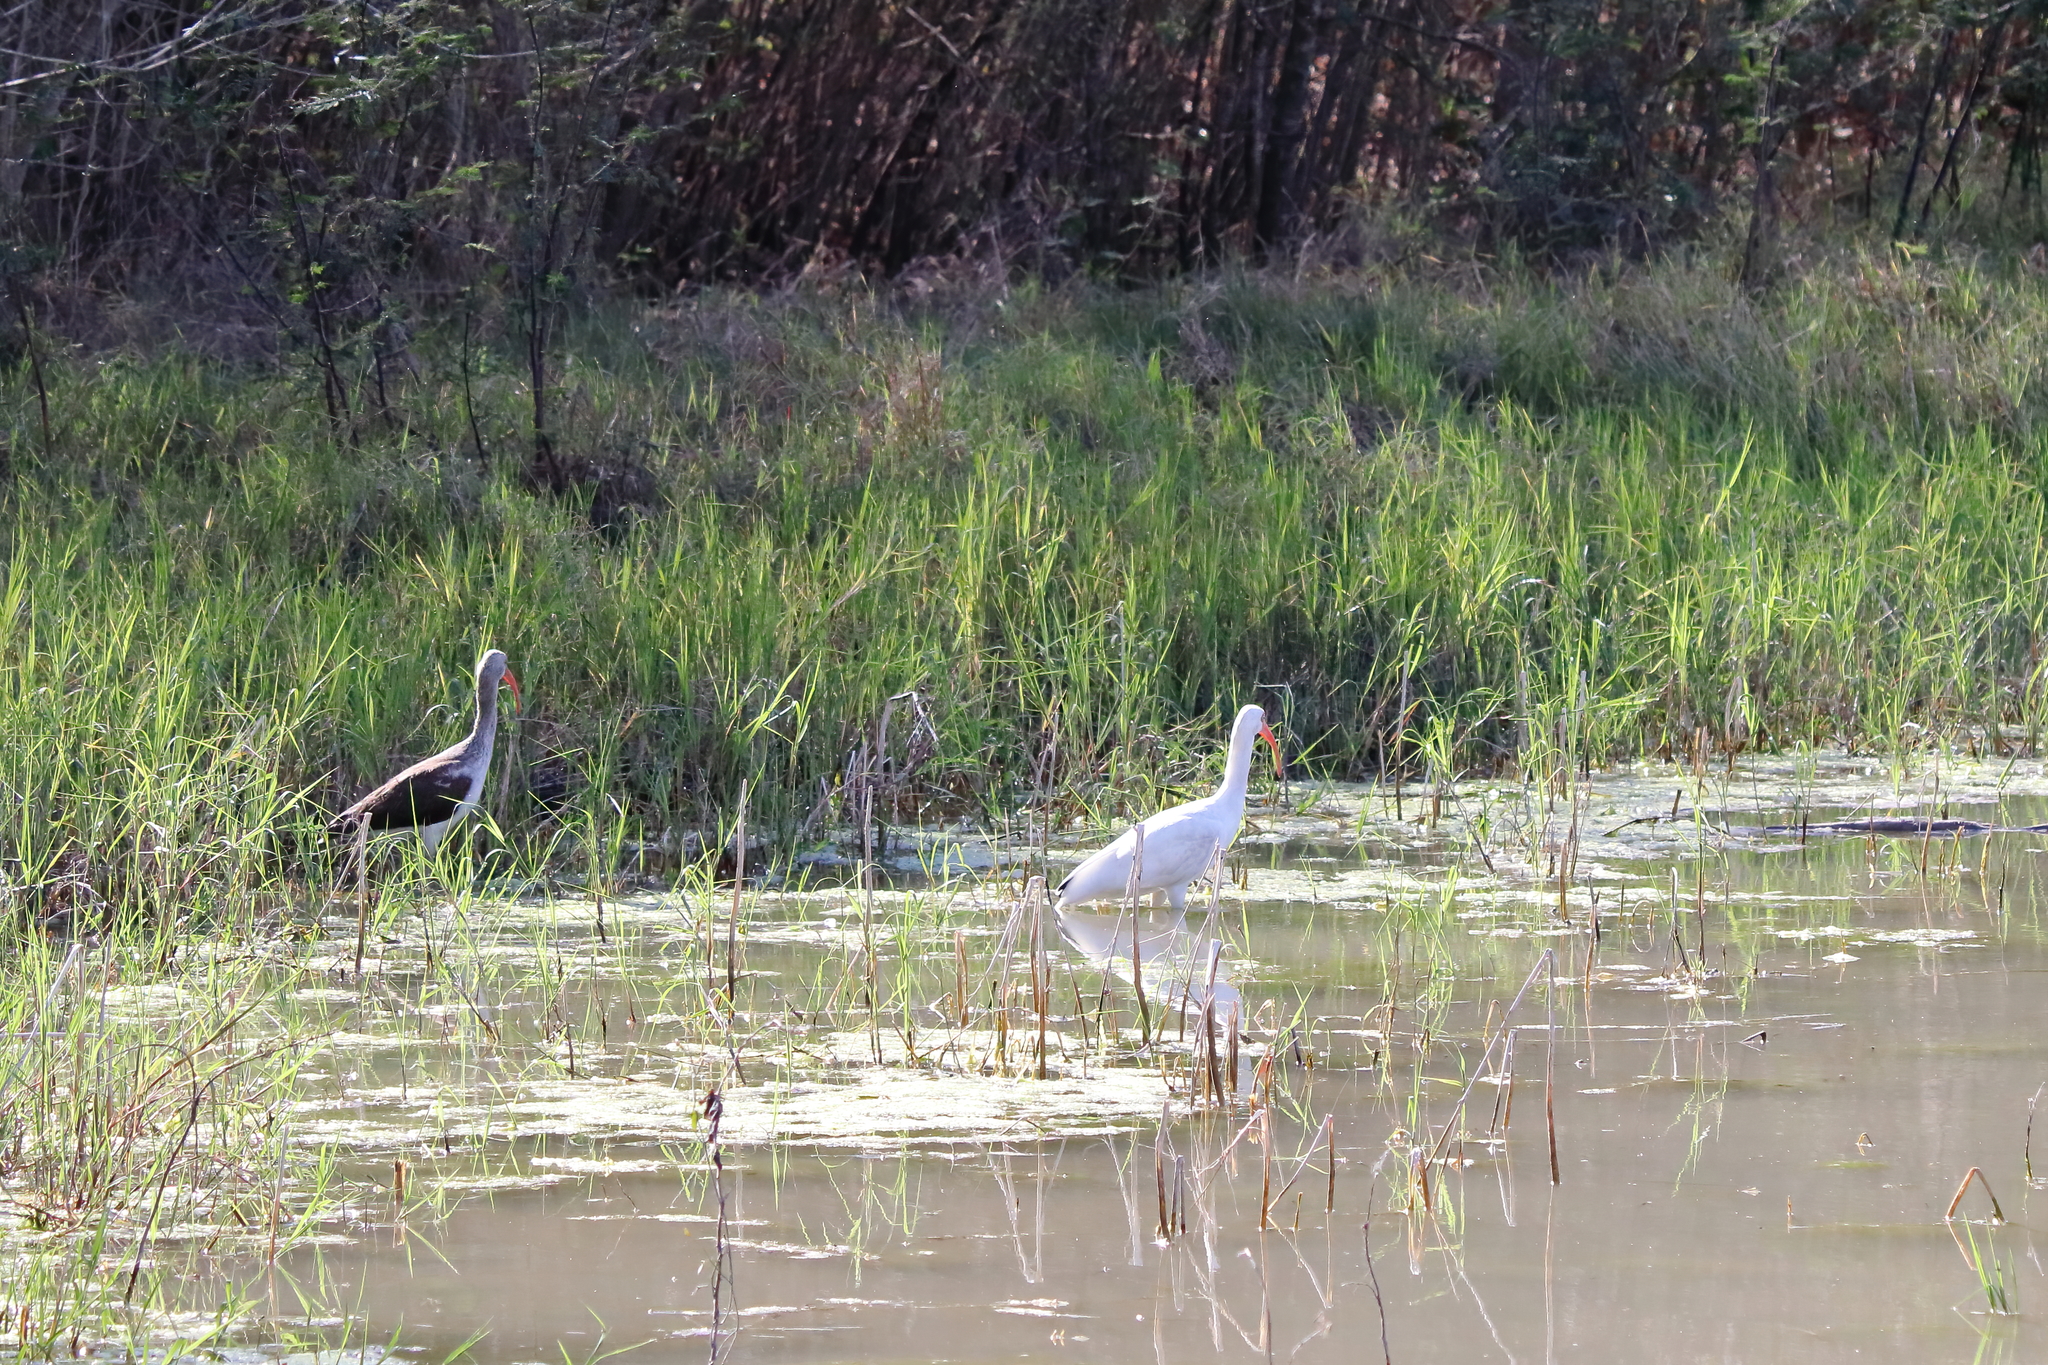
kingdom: Animalia
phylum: Chordata
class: Aves
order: Pelecaniformes
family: Threskiornithidae
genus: Eudocimus
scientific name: Eudocimus albus
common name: White ibis
